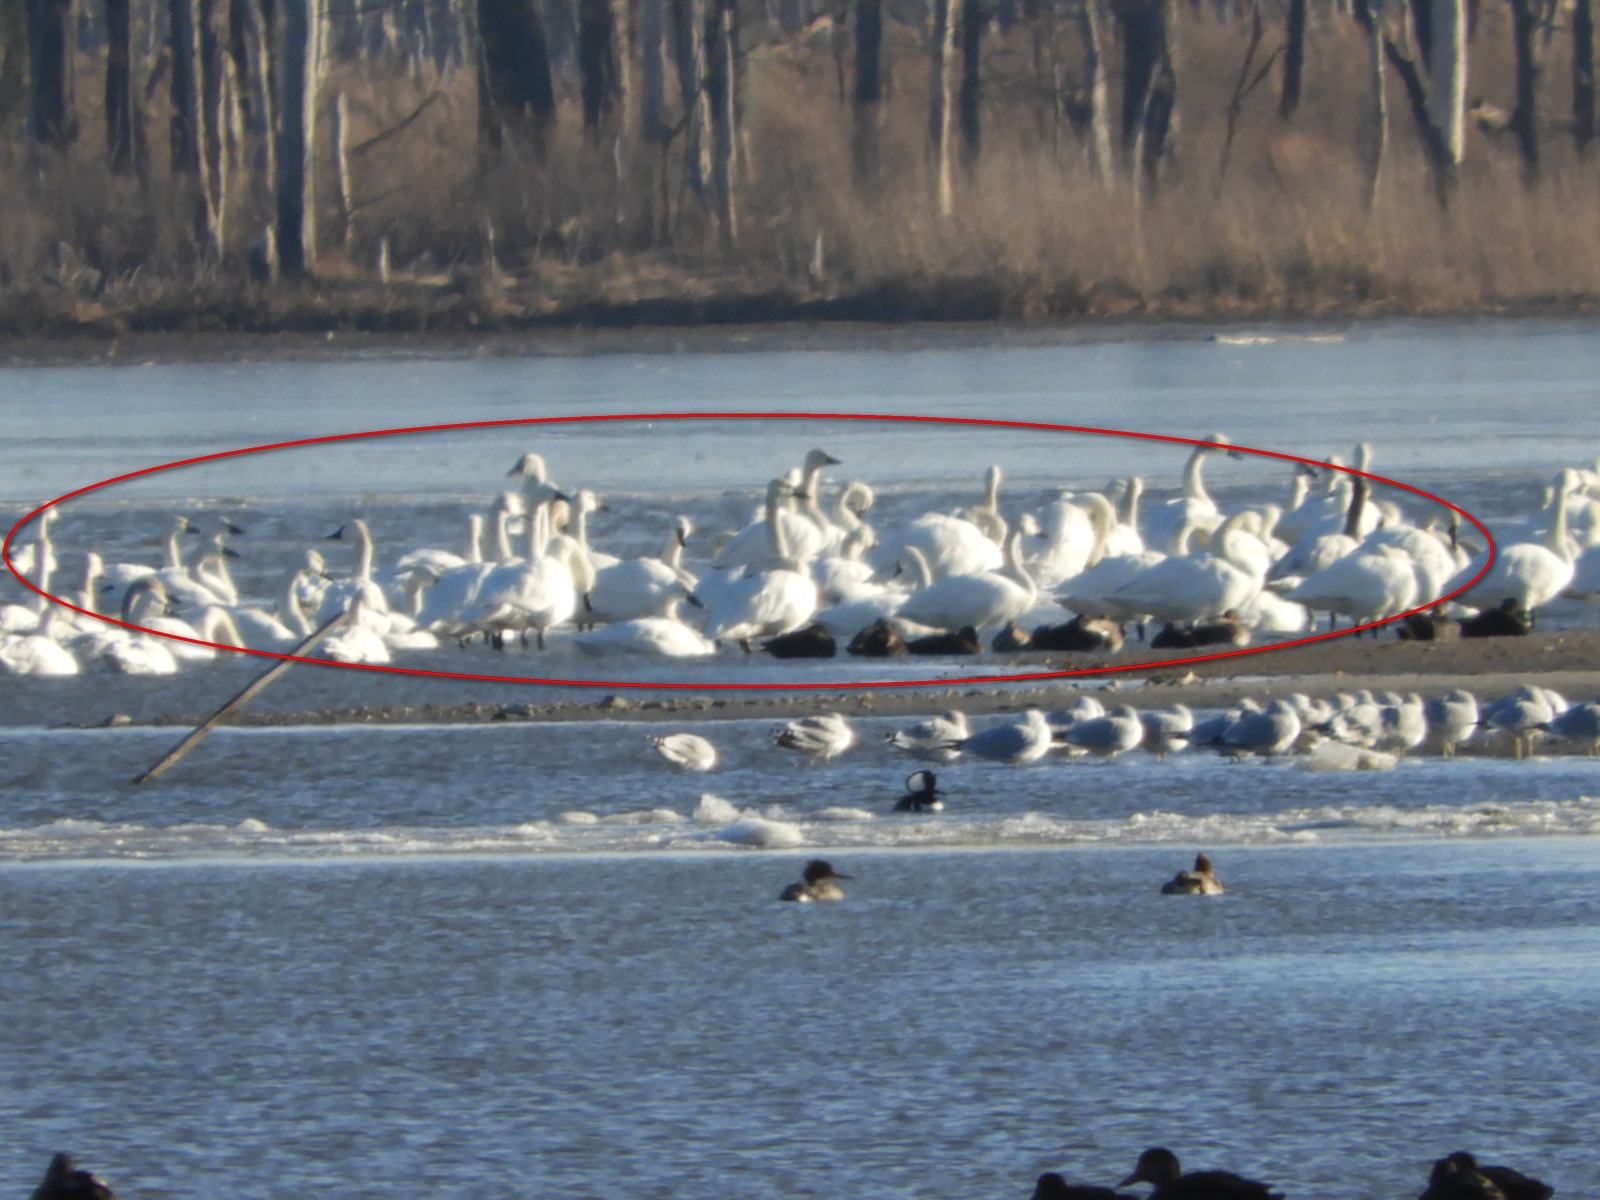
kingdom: Animalia
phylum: Chordata
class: Aves
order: Anseriformes
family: Anatidae
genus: Cygnus
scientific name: Cygnus columbianus
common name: Tundra swan
